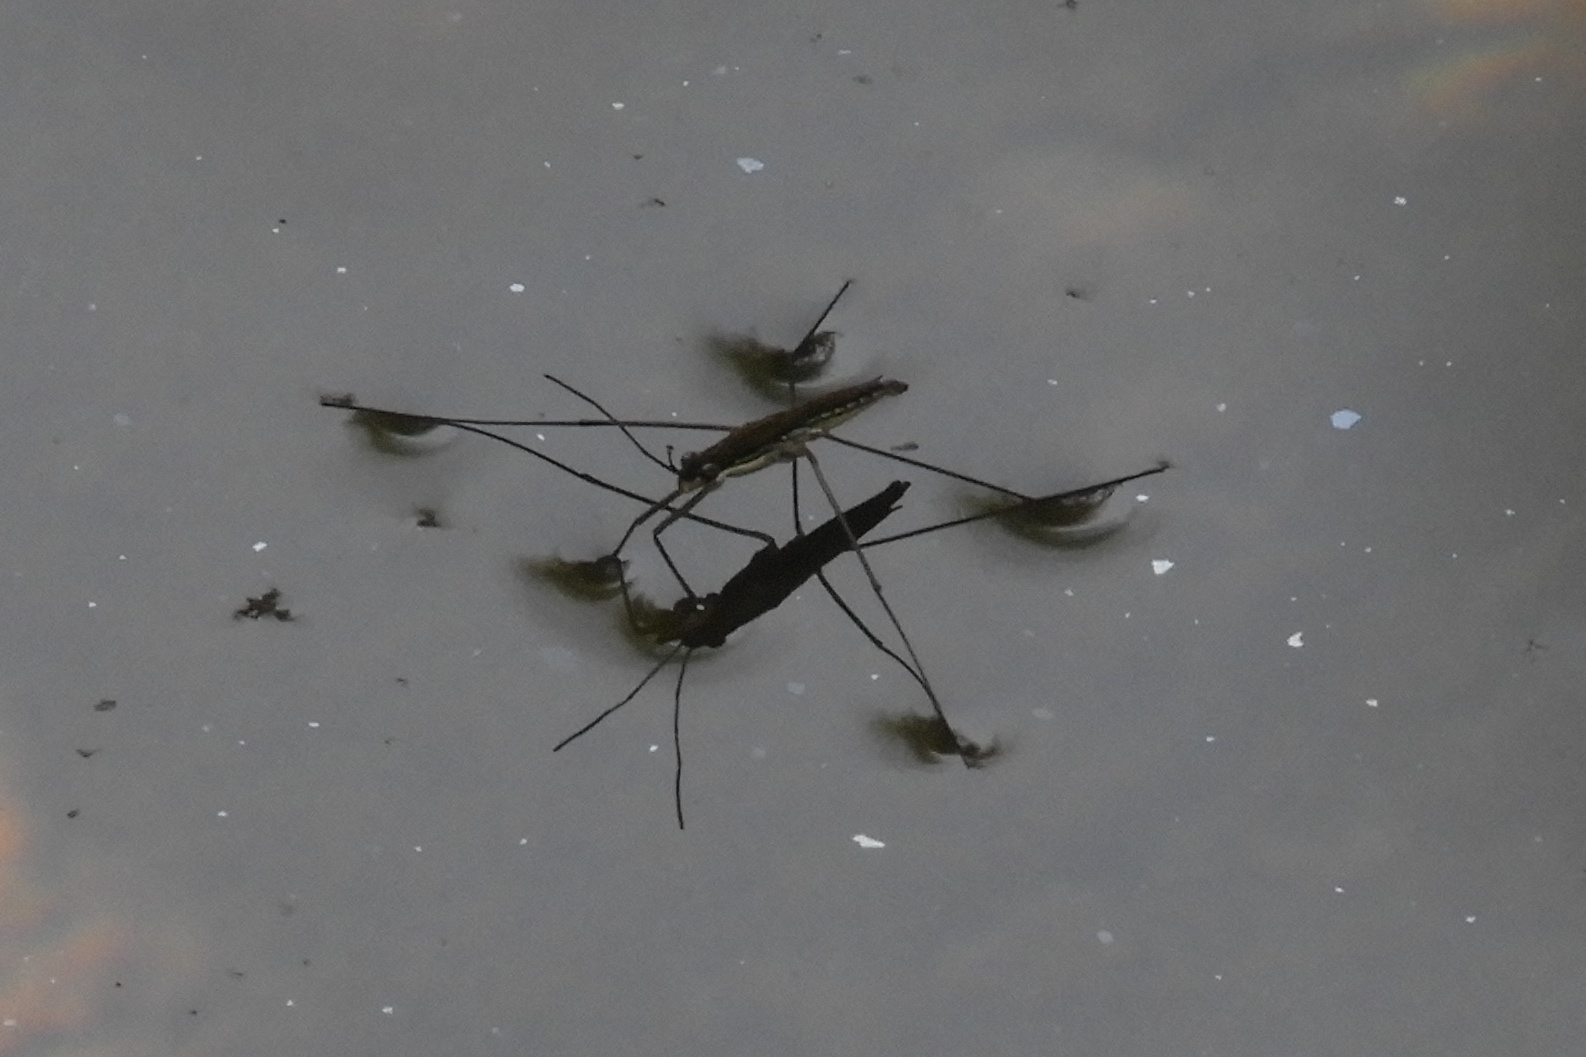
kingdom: Animalia
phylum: Arthropoda
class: Insecta
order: Hemiptera
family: Gerridae
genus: Limnoporus
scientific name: Limnoporus canaliculatus
